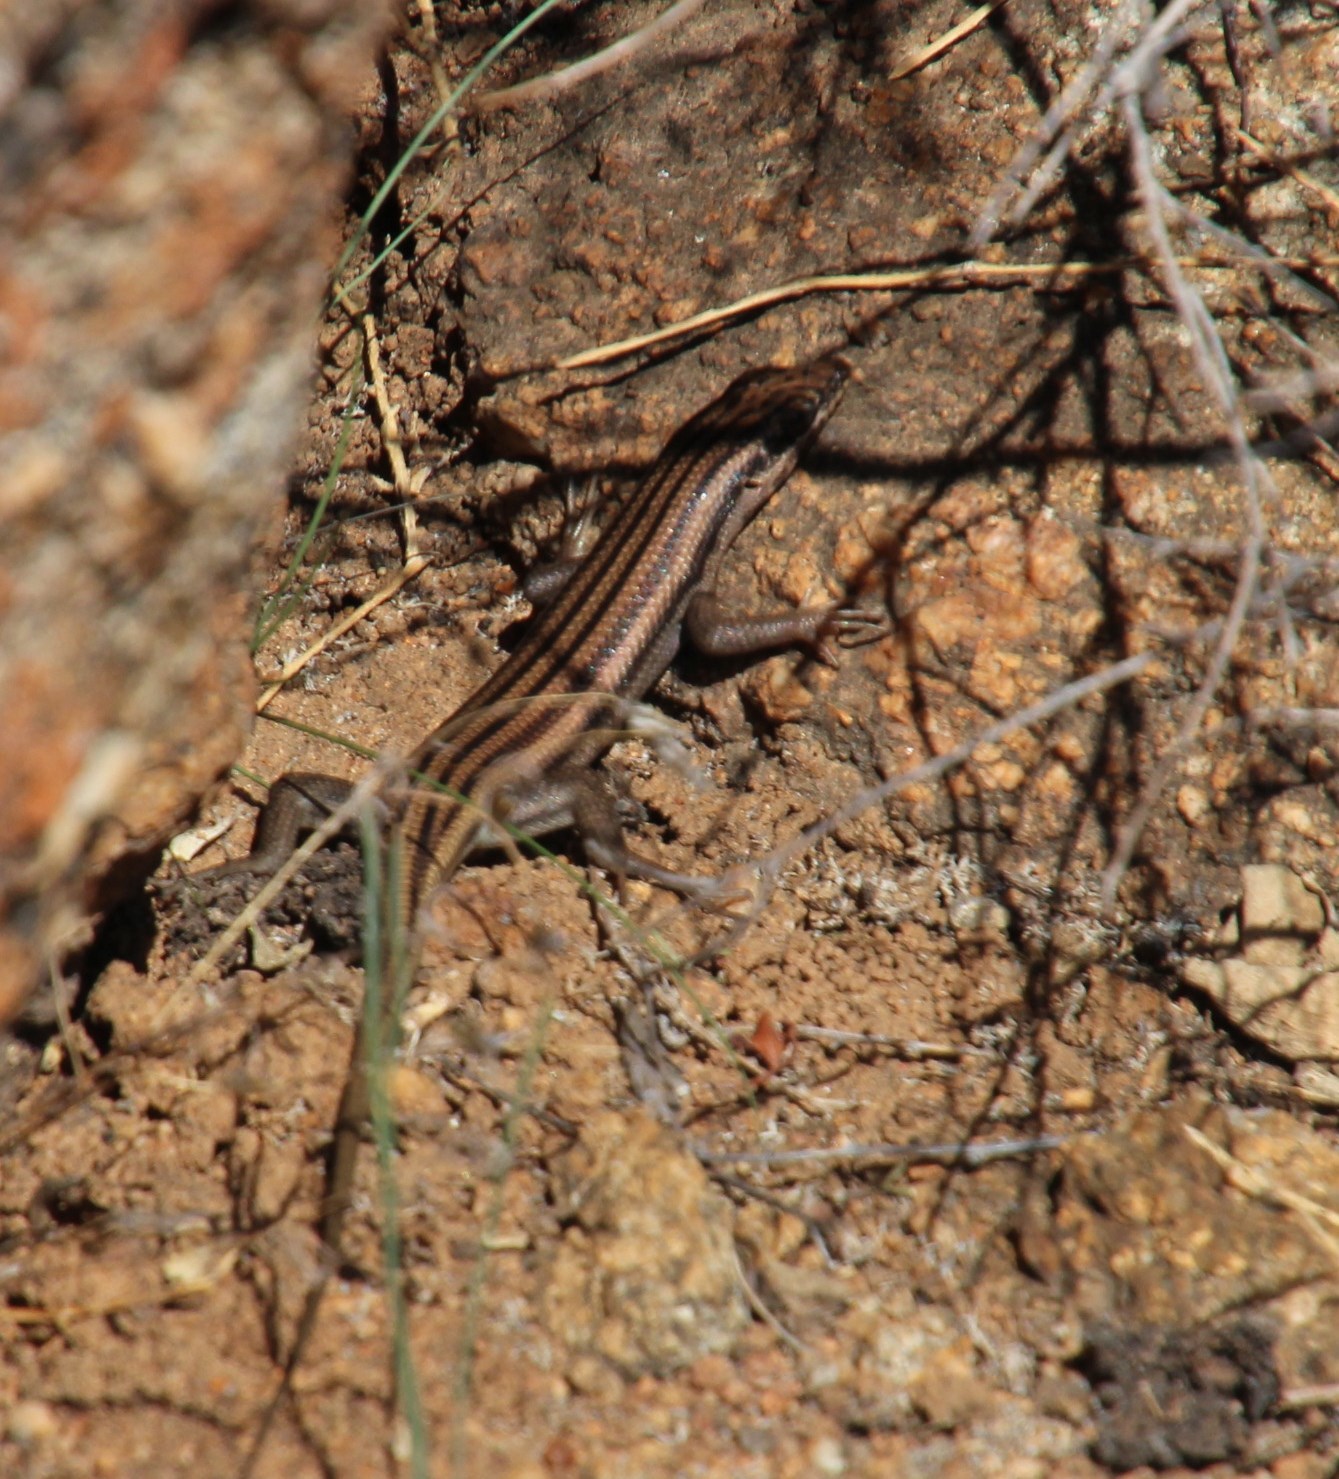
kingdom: Animalia
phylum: Chordata
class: Squamata
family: Scincidae
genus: Trachylepis
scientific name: Trachylepis sulcata
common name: Western rock skink
